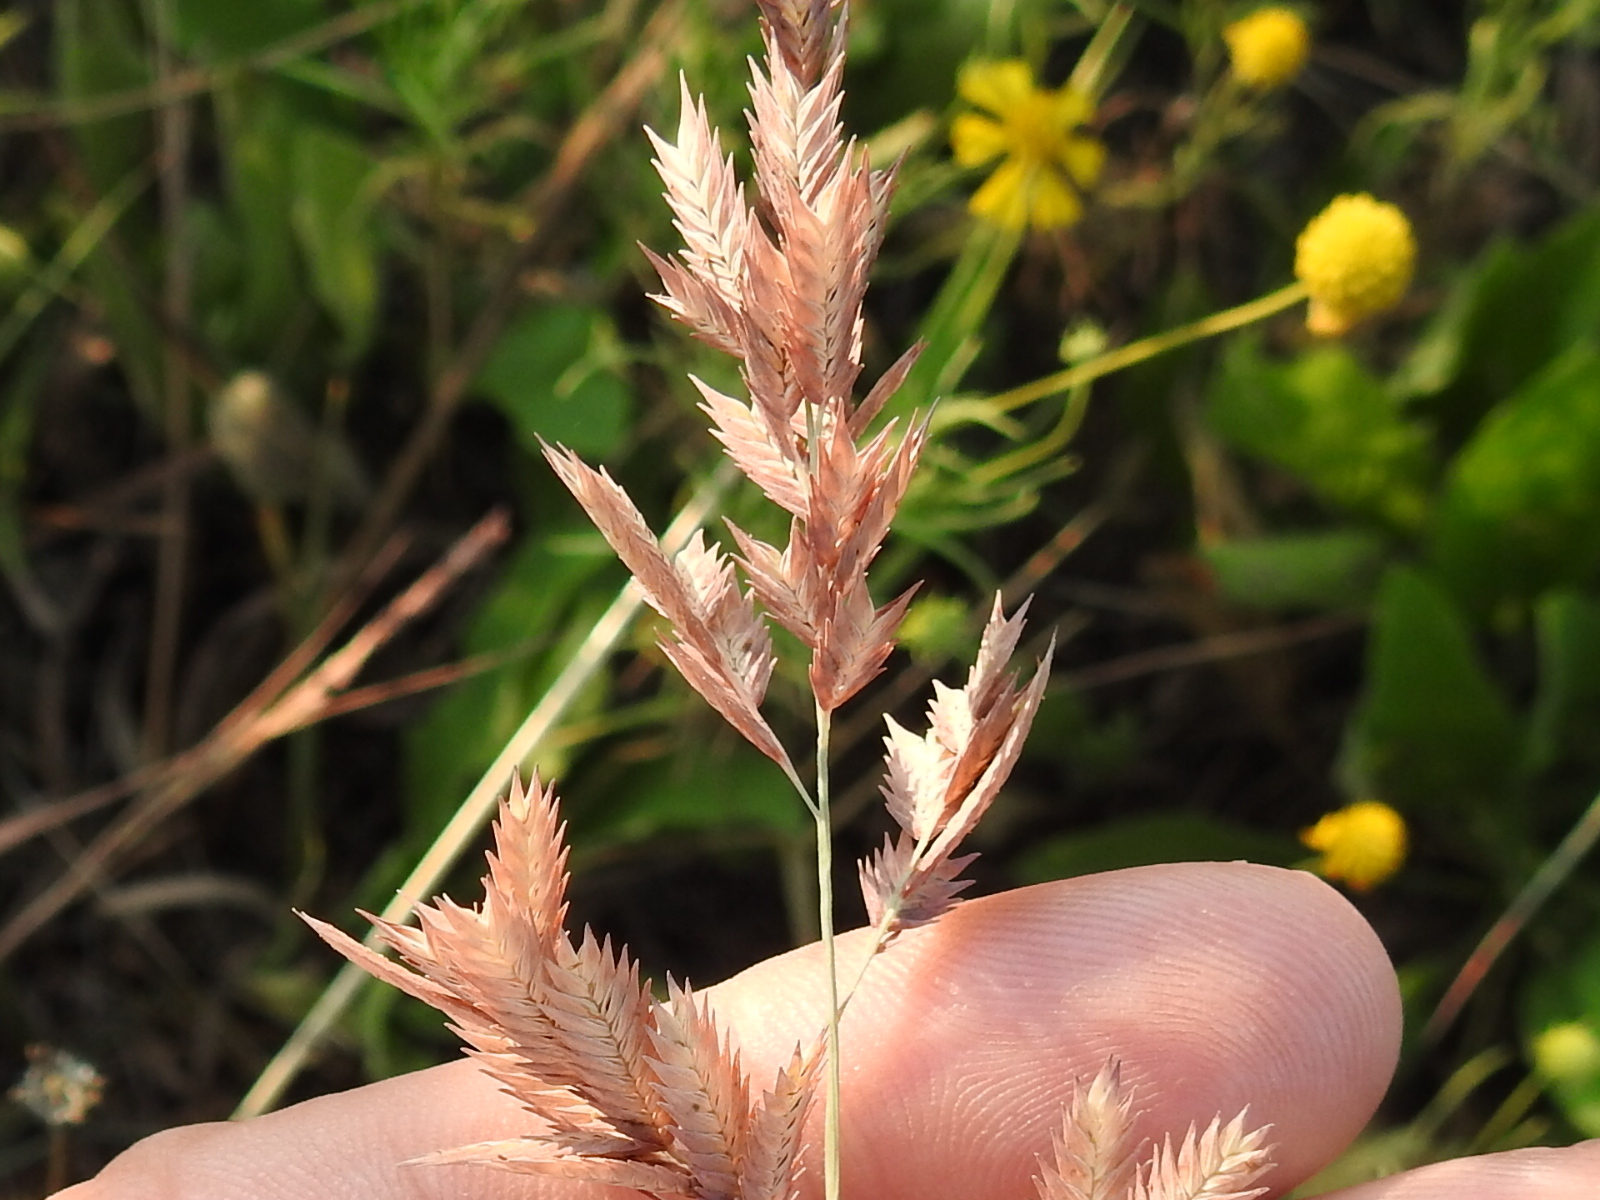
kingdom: Plantae
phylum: Tracheophyta
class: Liliopsida
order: Poales
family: Poaceae
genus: Eragrostis
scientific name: Eragrostis secundiflora
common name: Red love grass
